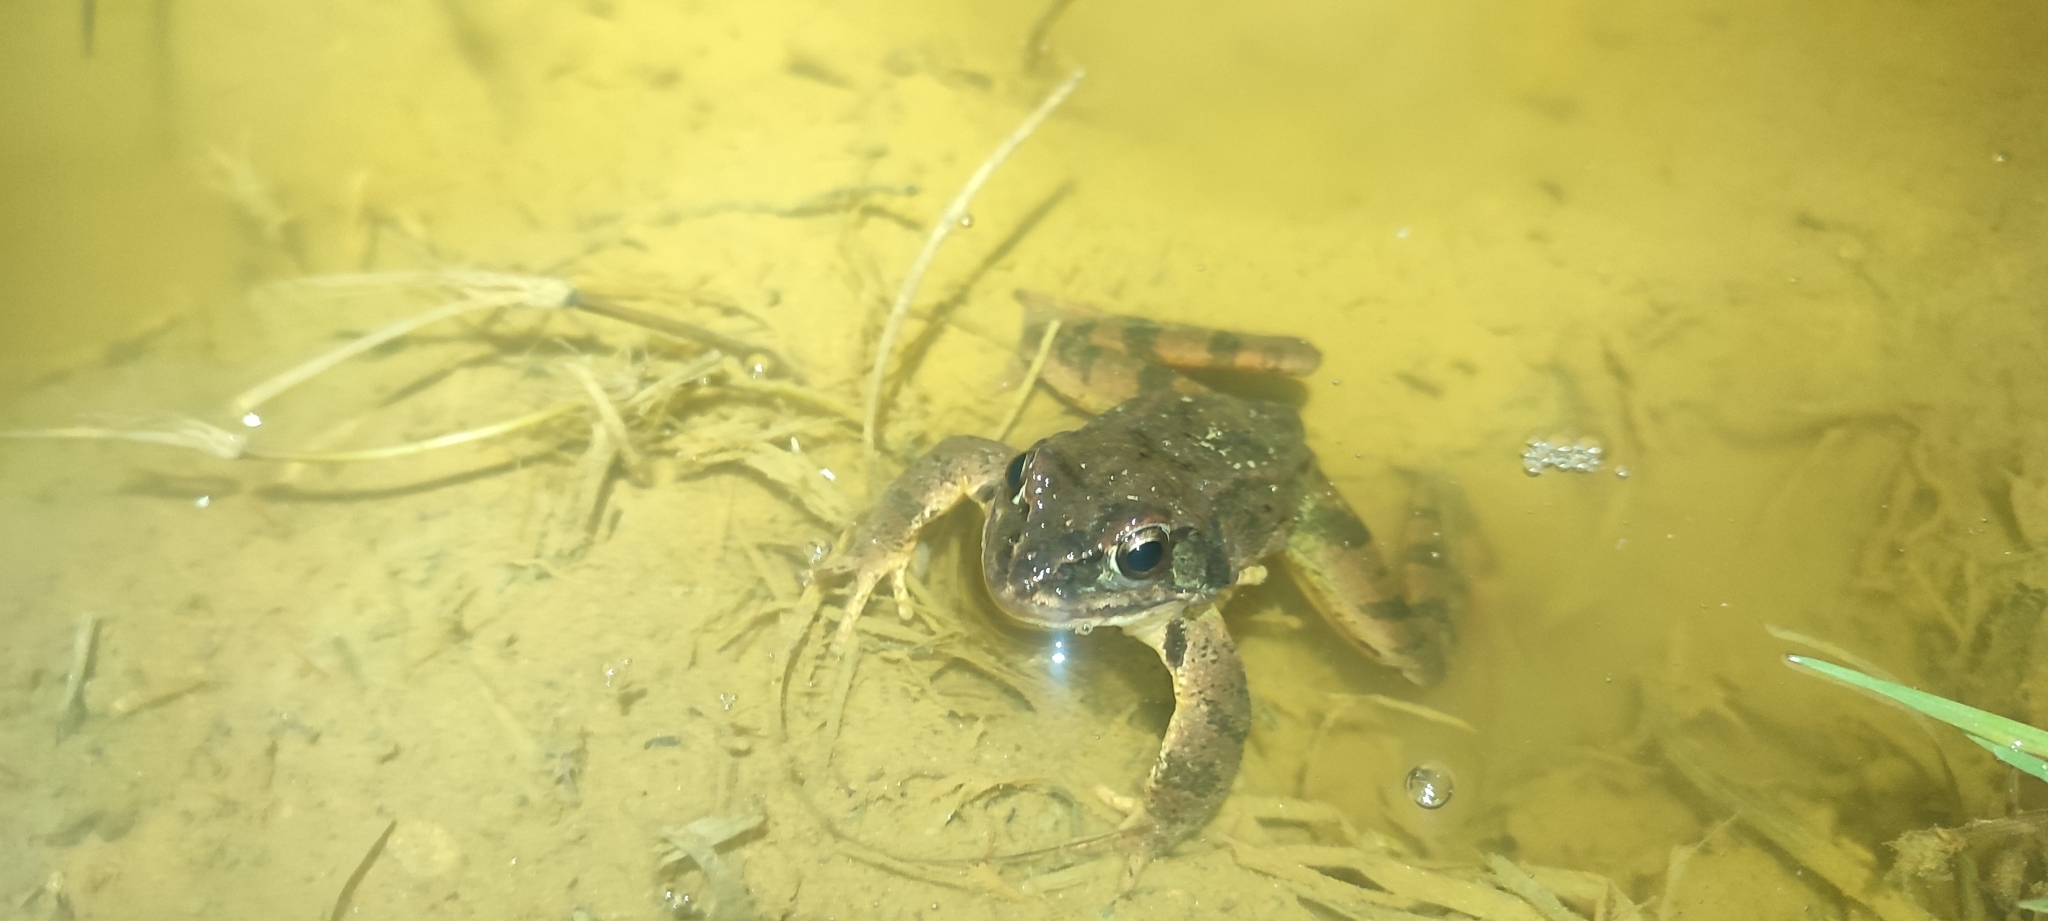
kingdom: Animalia
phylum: Chordata
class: Amphibia
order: Anura
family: Ranidae
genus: Rana
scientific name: Rana dalmatina
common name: Agile frog
